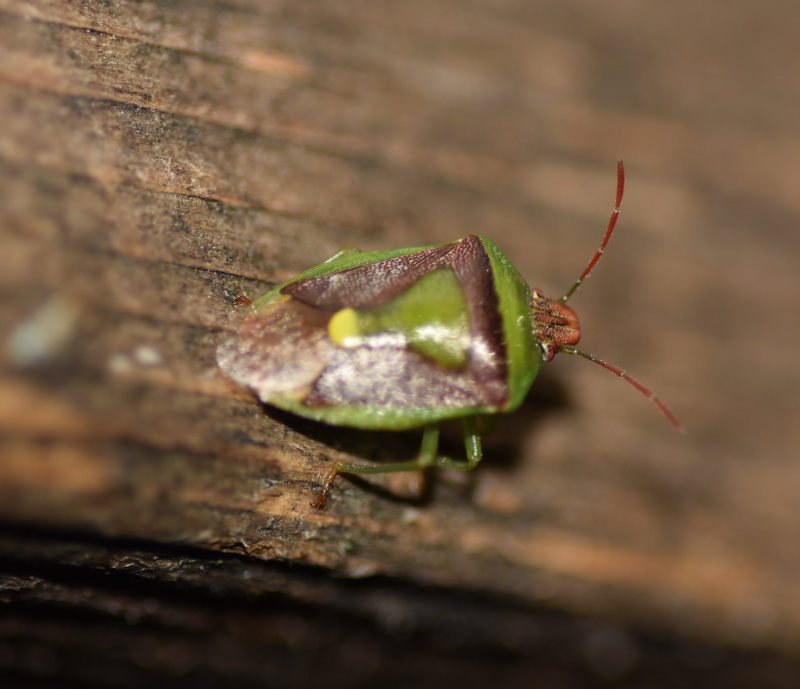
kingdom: Animalia
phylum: Arthropoda
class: Insecta
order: Hemiptera
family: Pentatomidae
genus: Banasa
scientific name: Banasa dimidiata
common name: Green burgundy stink bug
